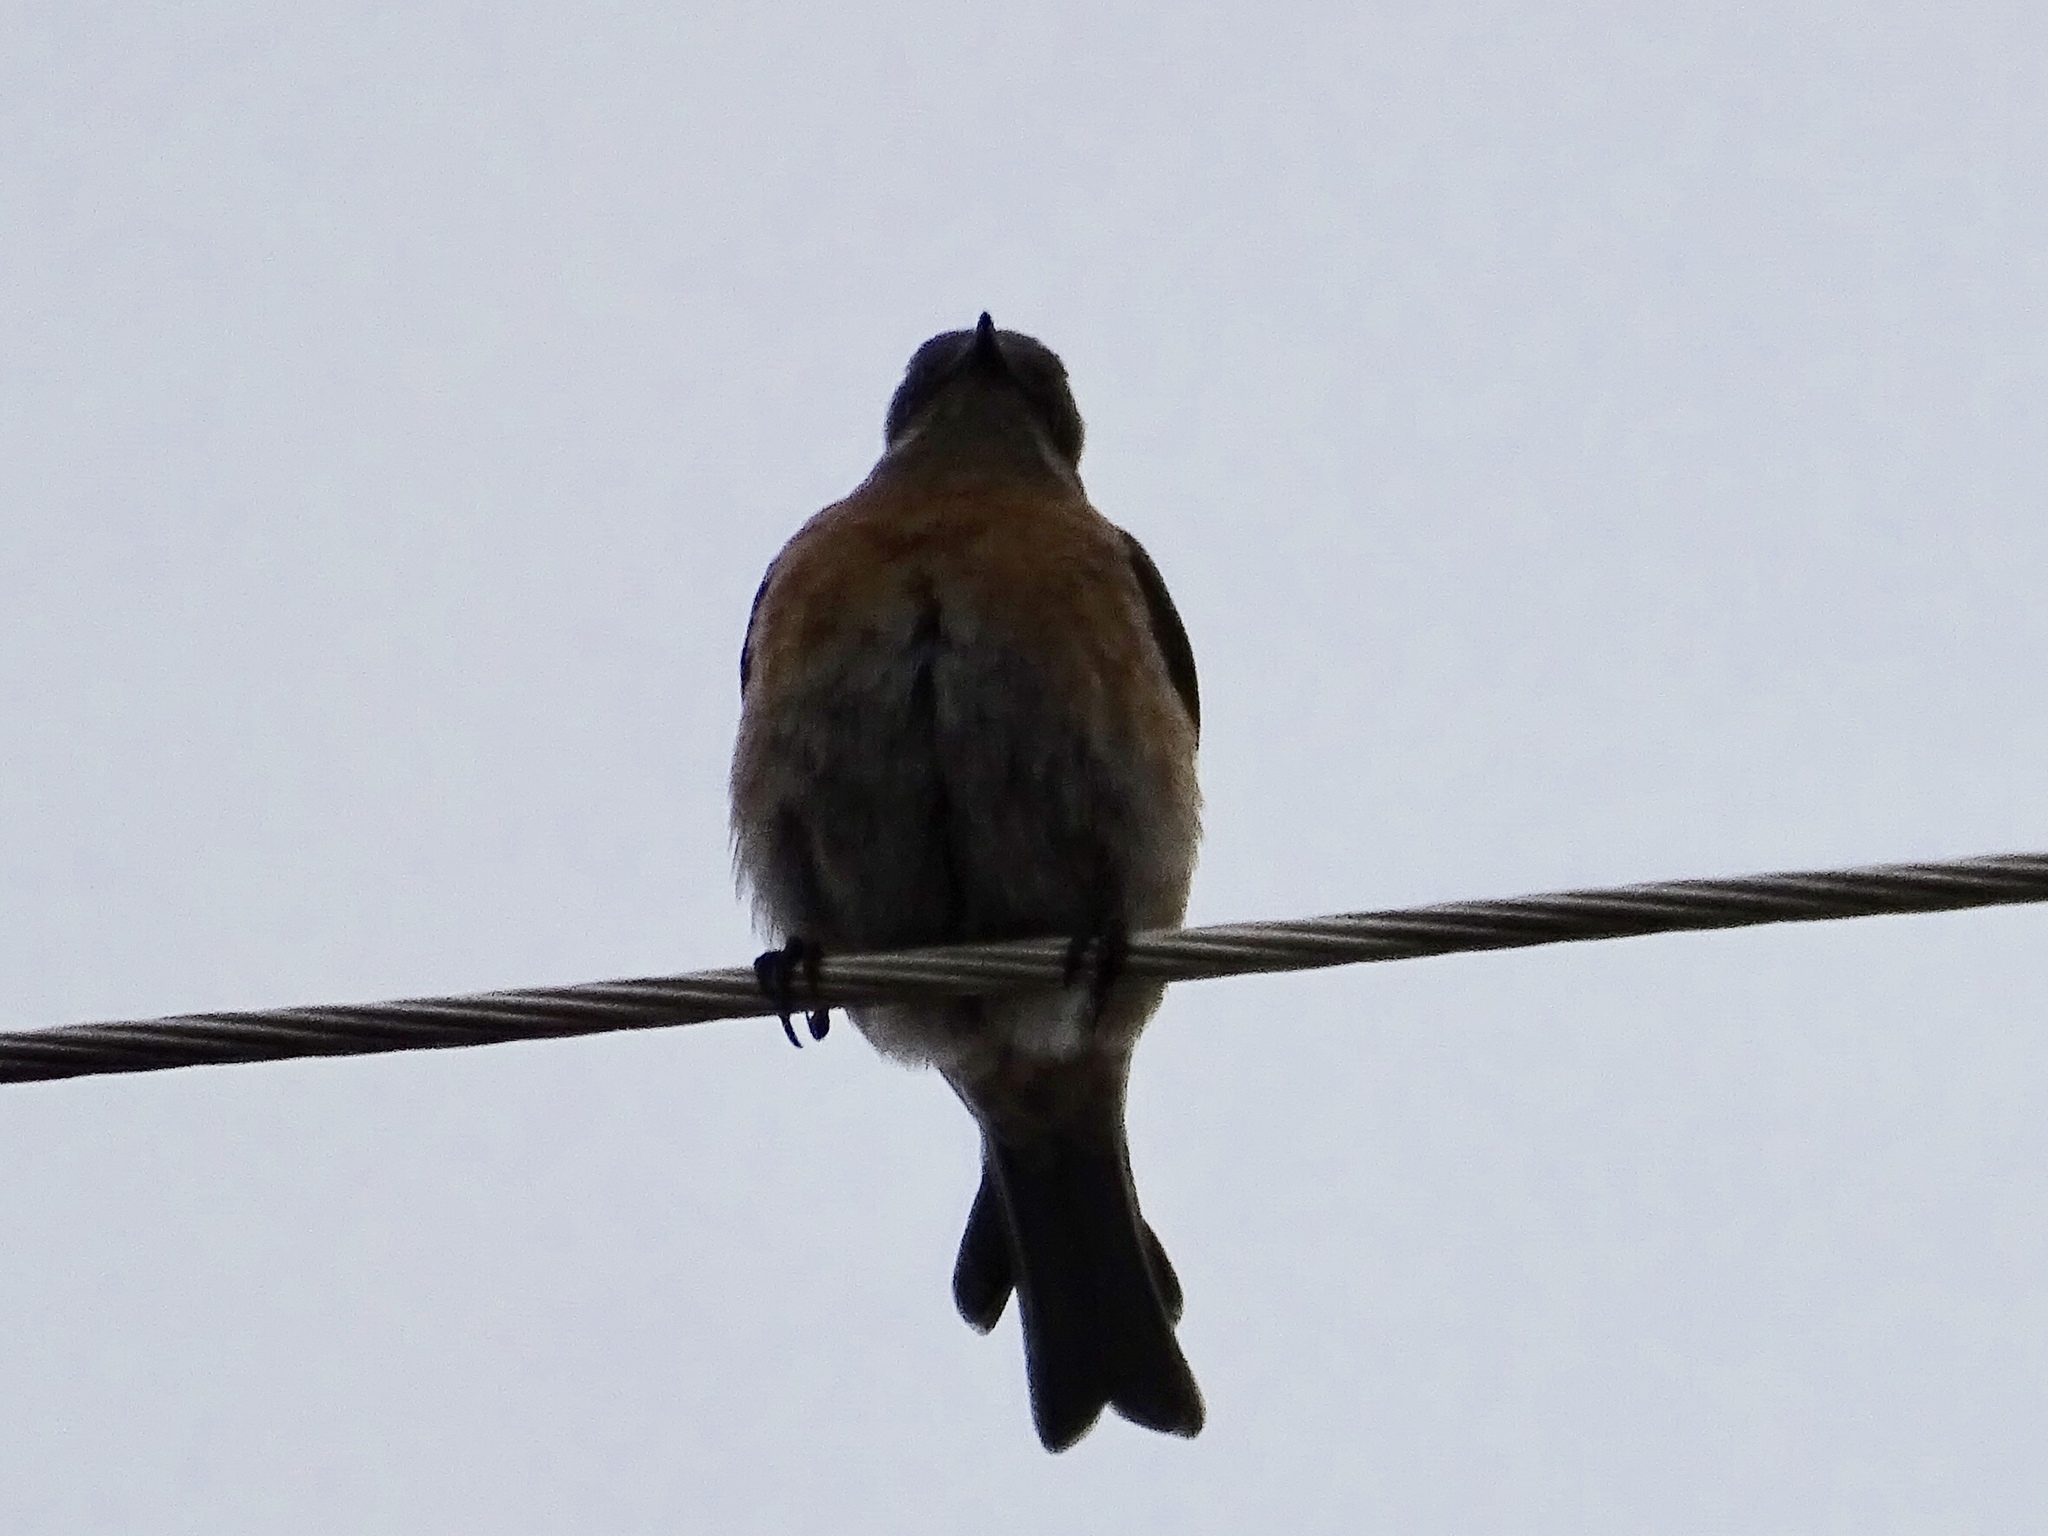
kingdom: Animalia
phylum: Chordata
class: Aves
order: Passeriformes
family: Turdidae
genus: Sialia
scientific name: Sialia mexicana
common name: Western bluebird
